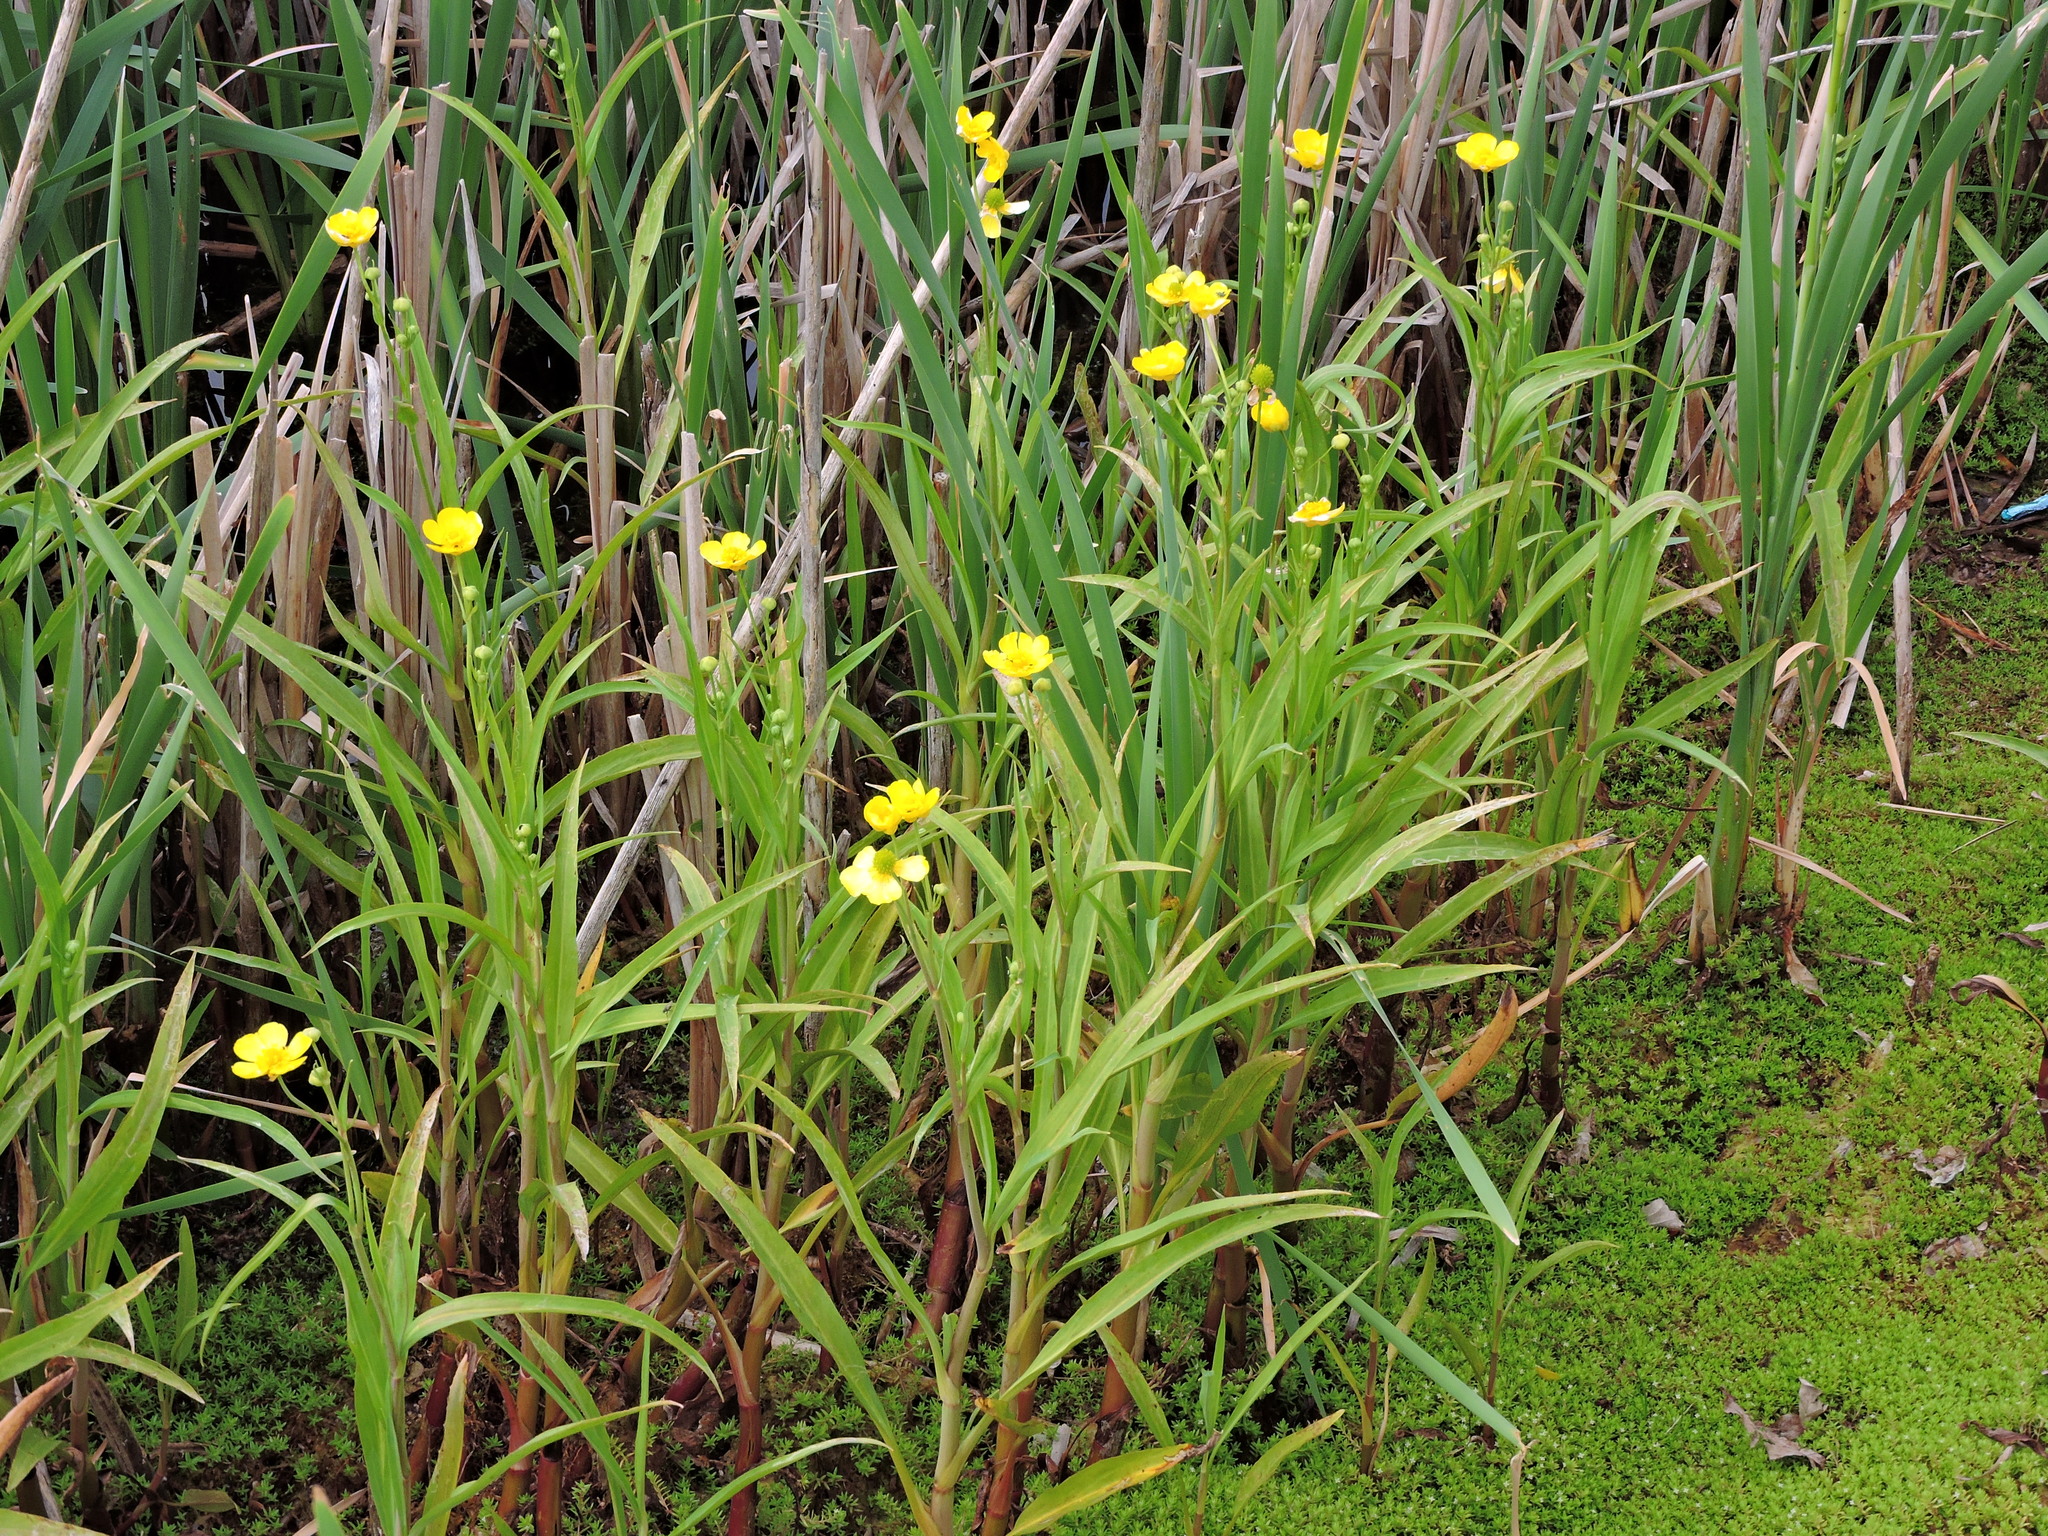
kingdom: Plantae
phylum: Tracheophyta
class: Magnoliopsida
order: Ranunculales
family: Ranunculaceae
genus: Ranunculus
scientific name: Ranunculus flammula
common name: Lesser spearwort
